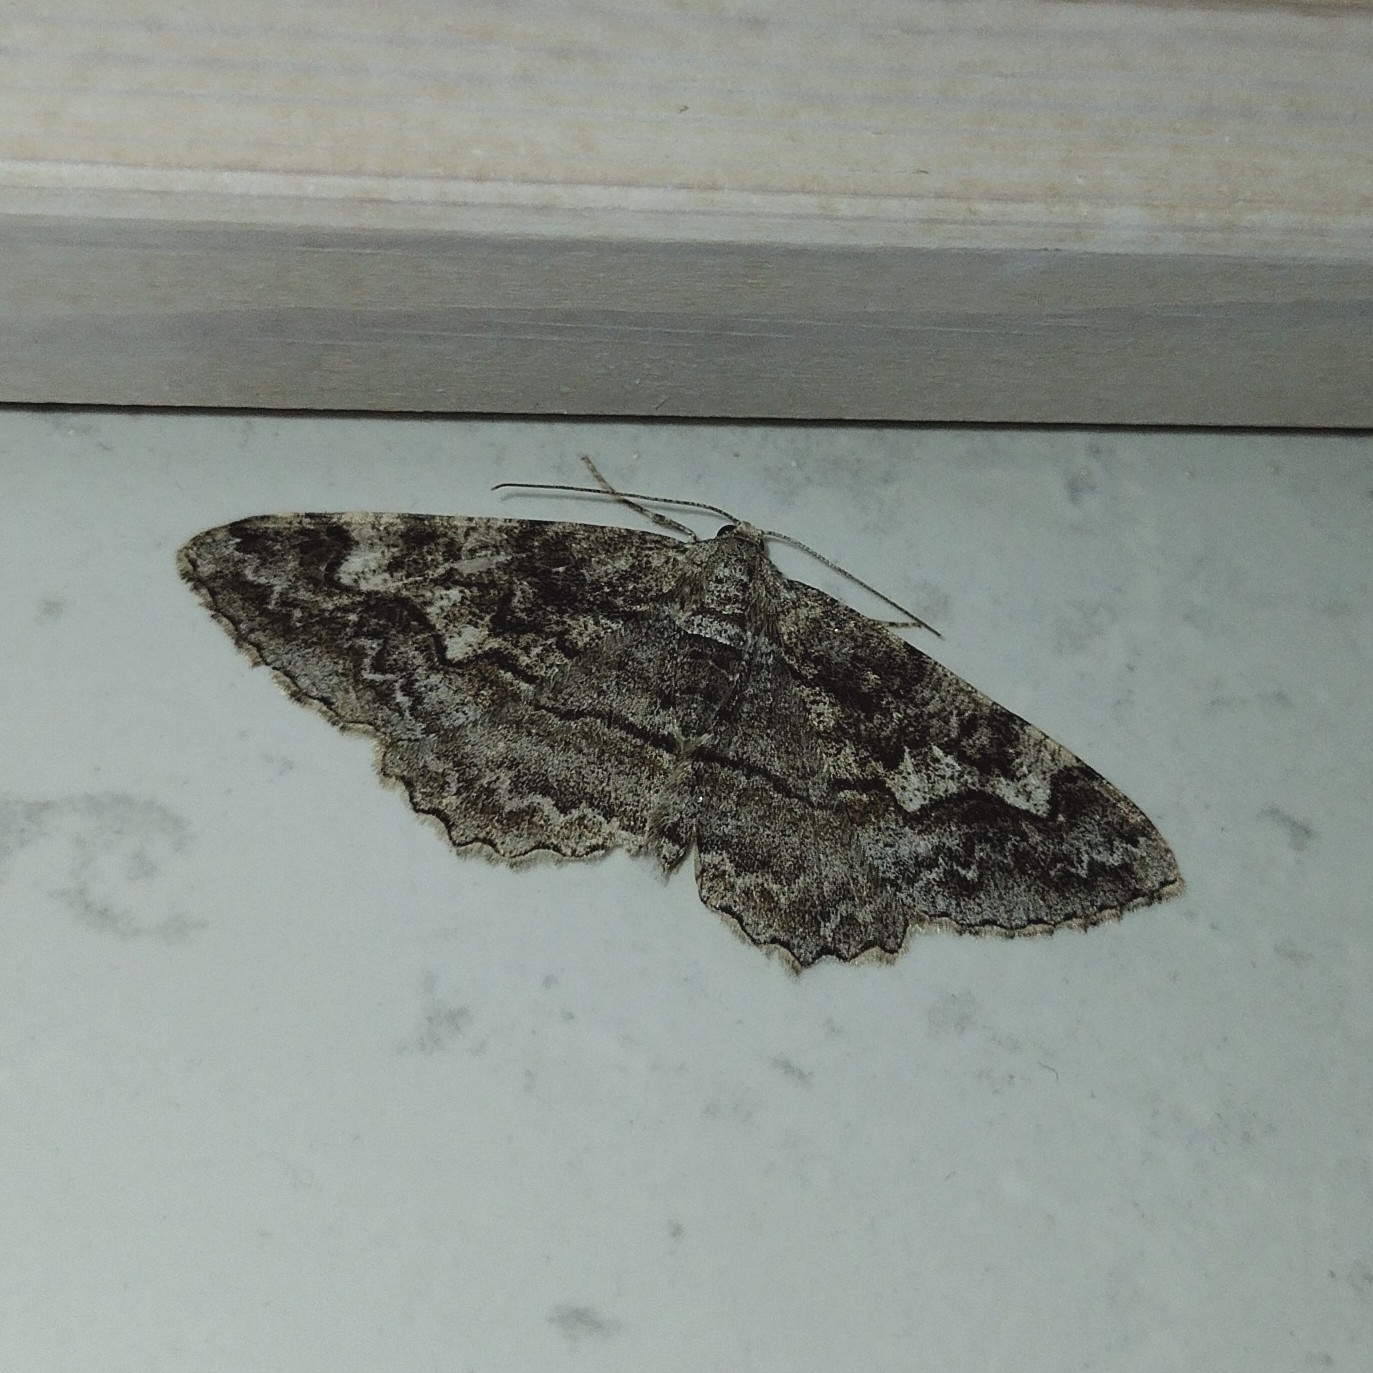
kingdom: Animalia
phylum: Arthropoda
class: Insecta
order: Lepidoptera
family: Geometridae
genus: Alcis
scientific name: Alcis repandata
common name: Mottled beauty
